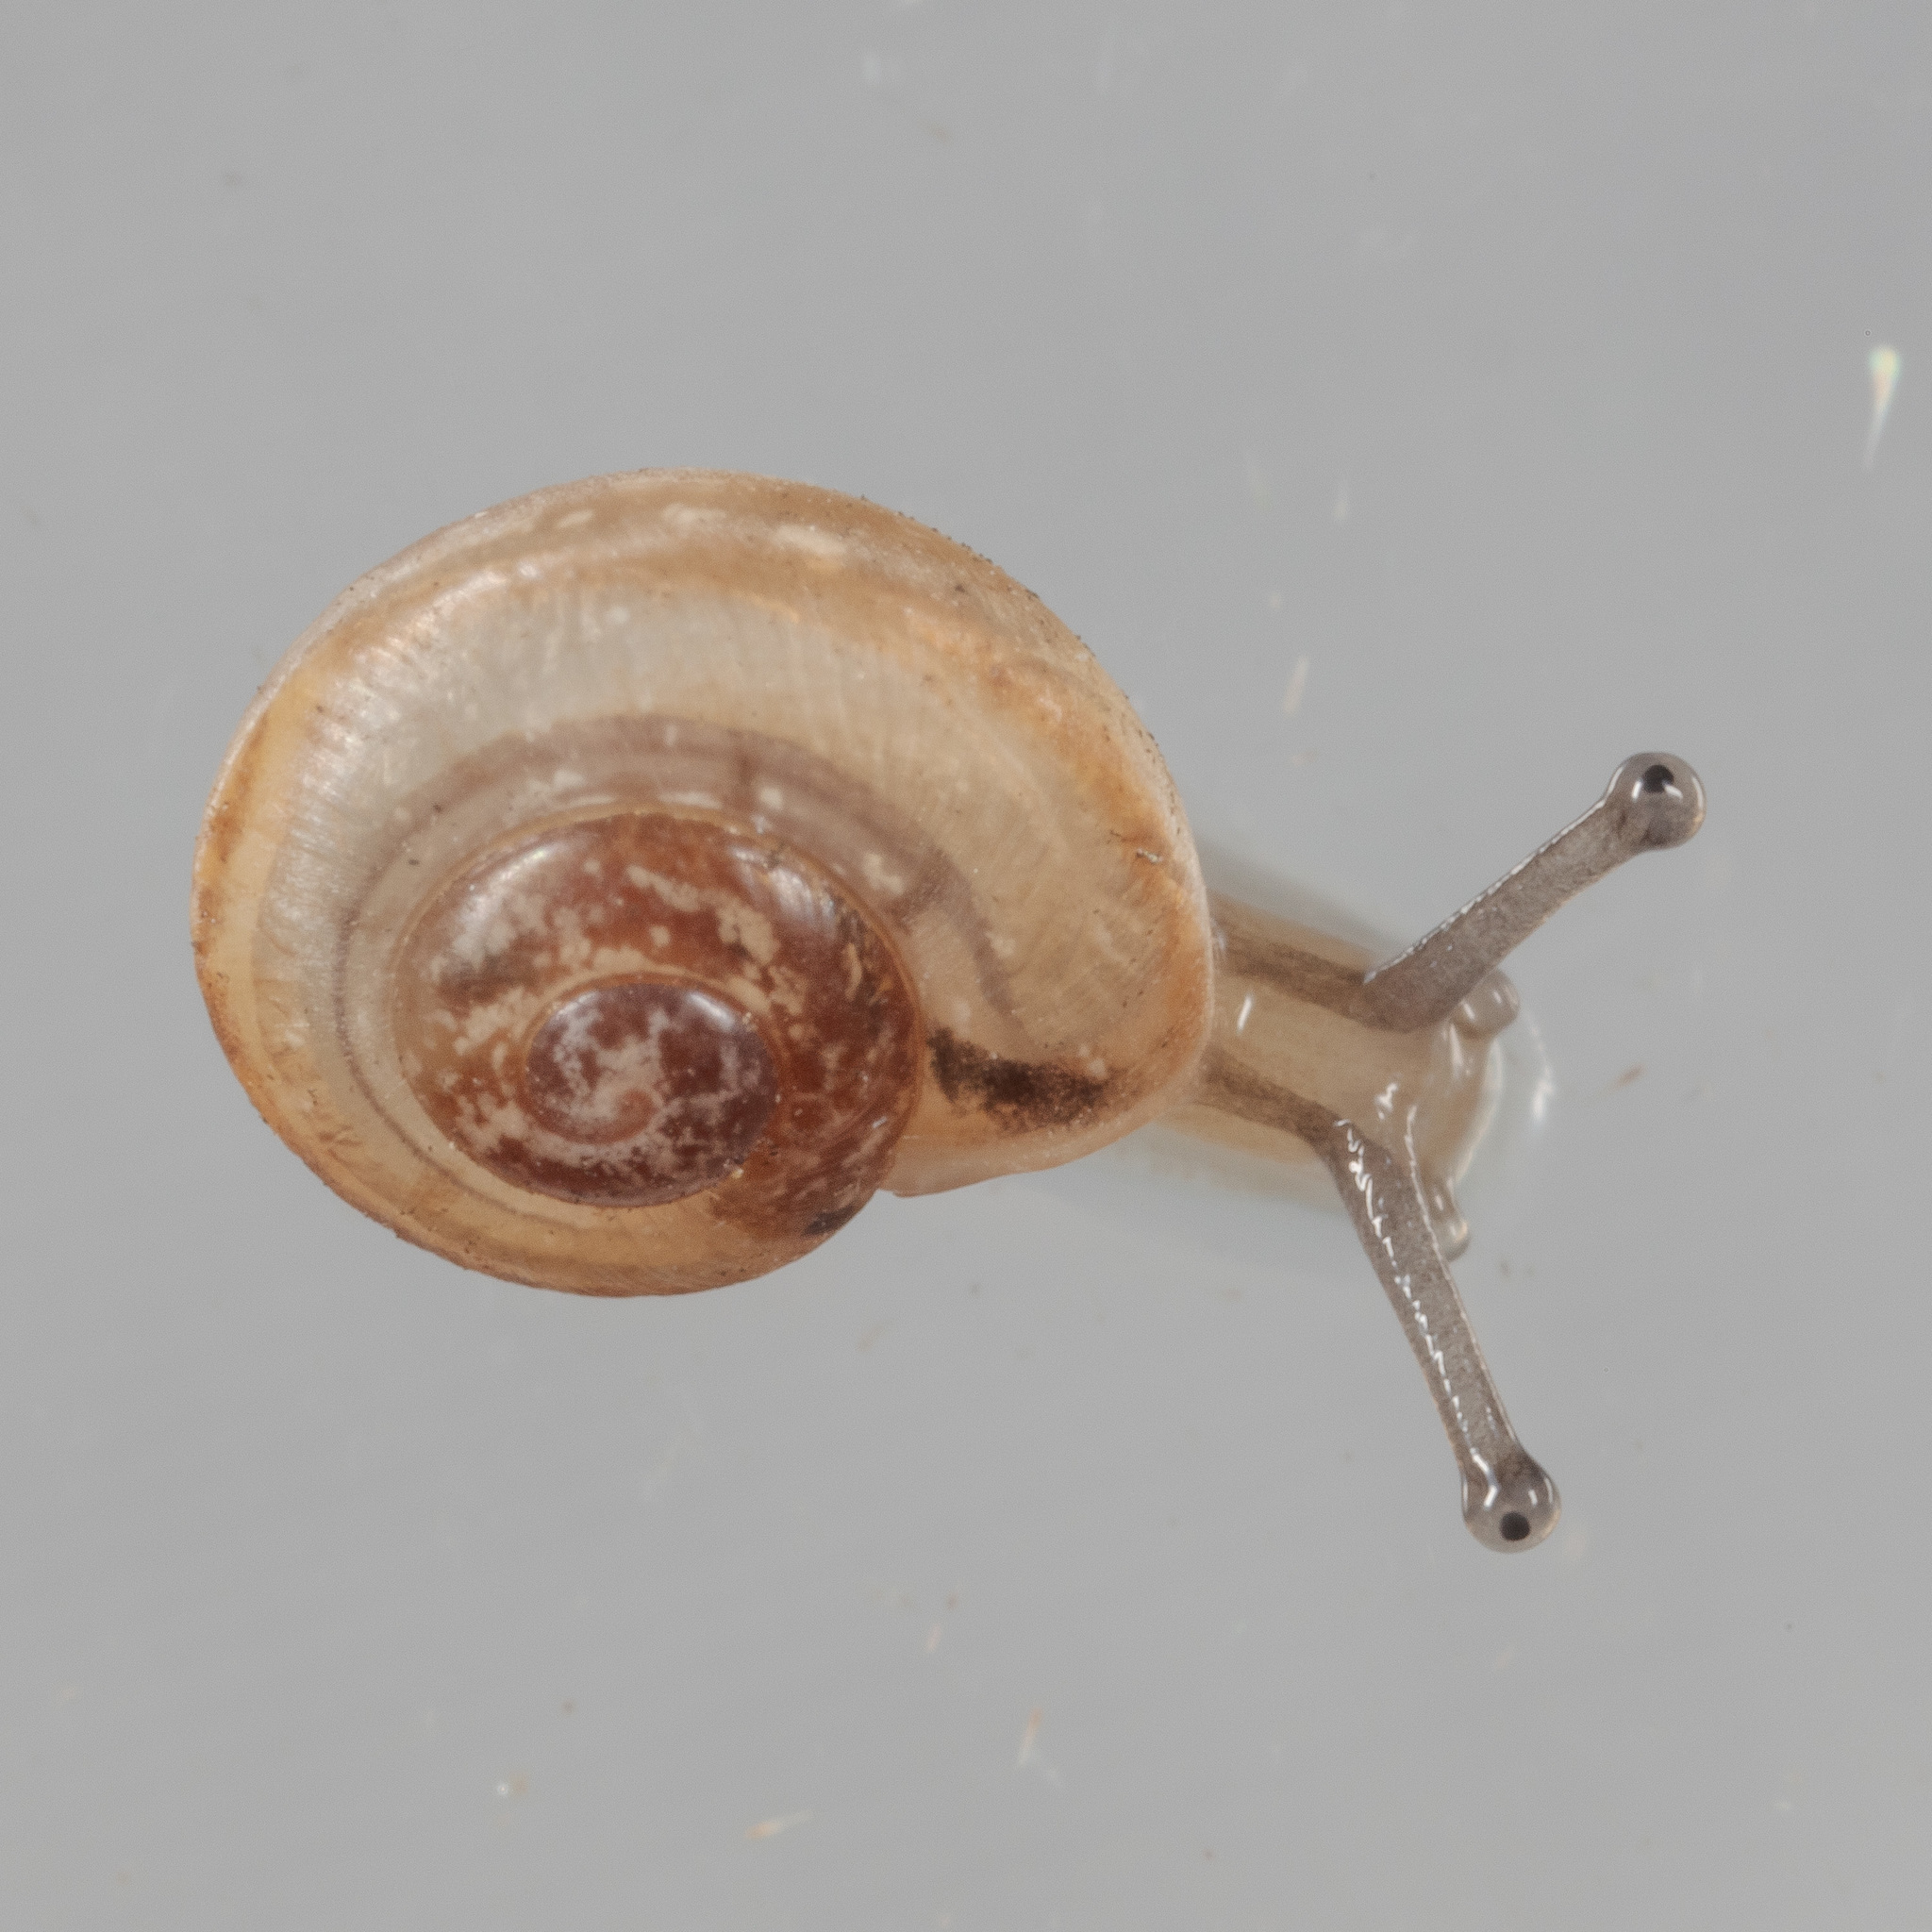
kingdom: Animalia
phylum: Mollusca
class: Gastropoda
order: Stylommatophora
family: Camaenidae
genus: Bradybaena
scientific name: Bradybaena similaris
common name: Asian trampsnail
